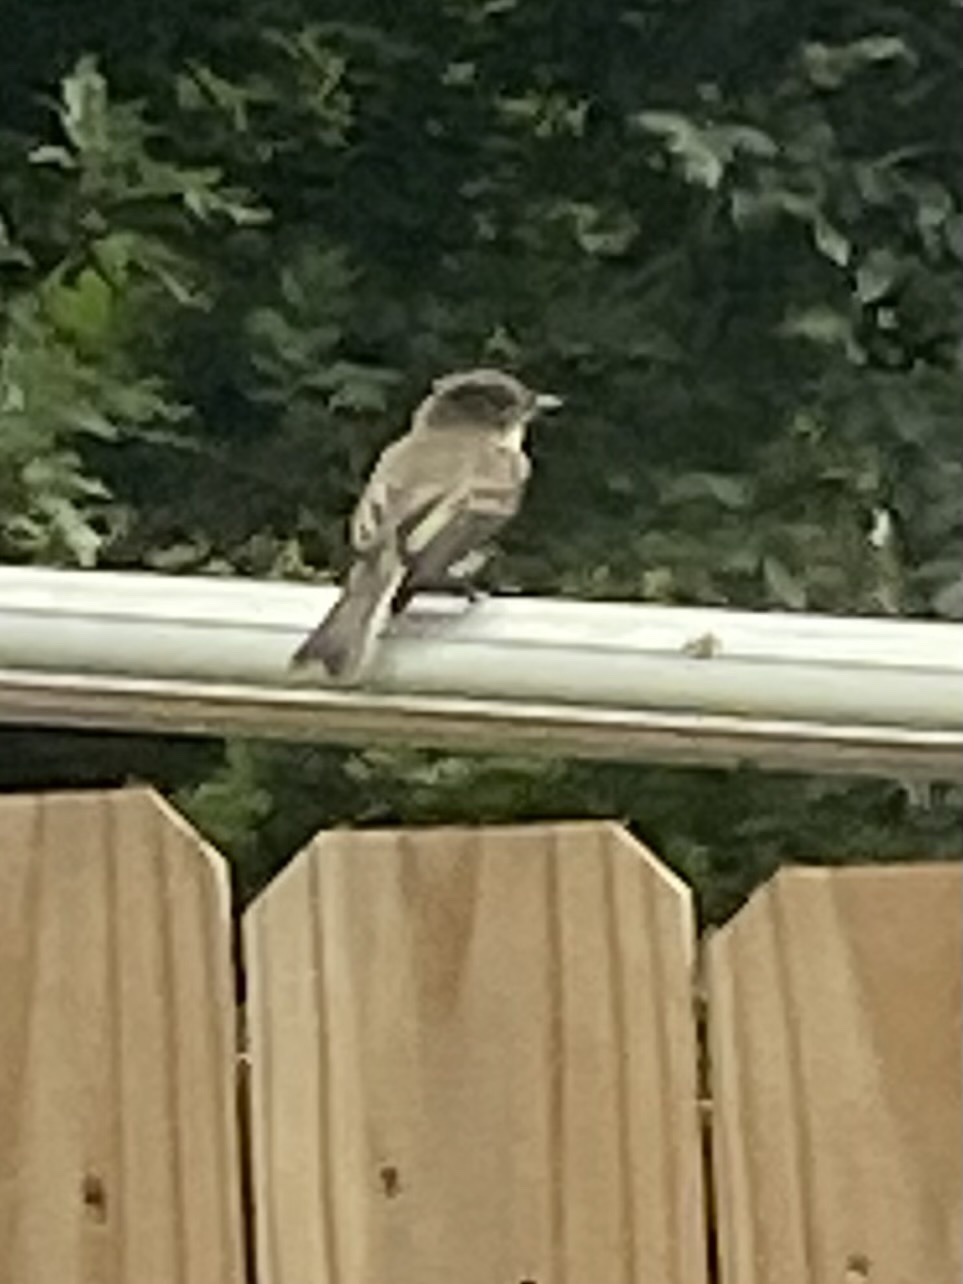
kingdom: Animalia
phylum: Chordata
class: Aves
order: Passeriformes
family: Tyrannidae
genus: Sayornis
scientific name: Sayornis phoebe
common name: Eastern phoebe
